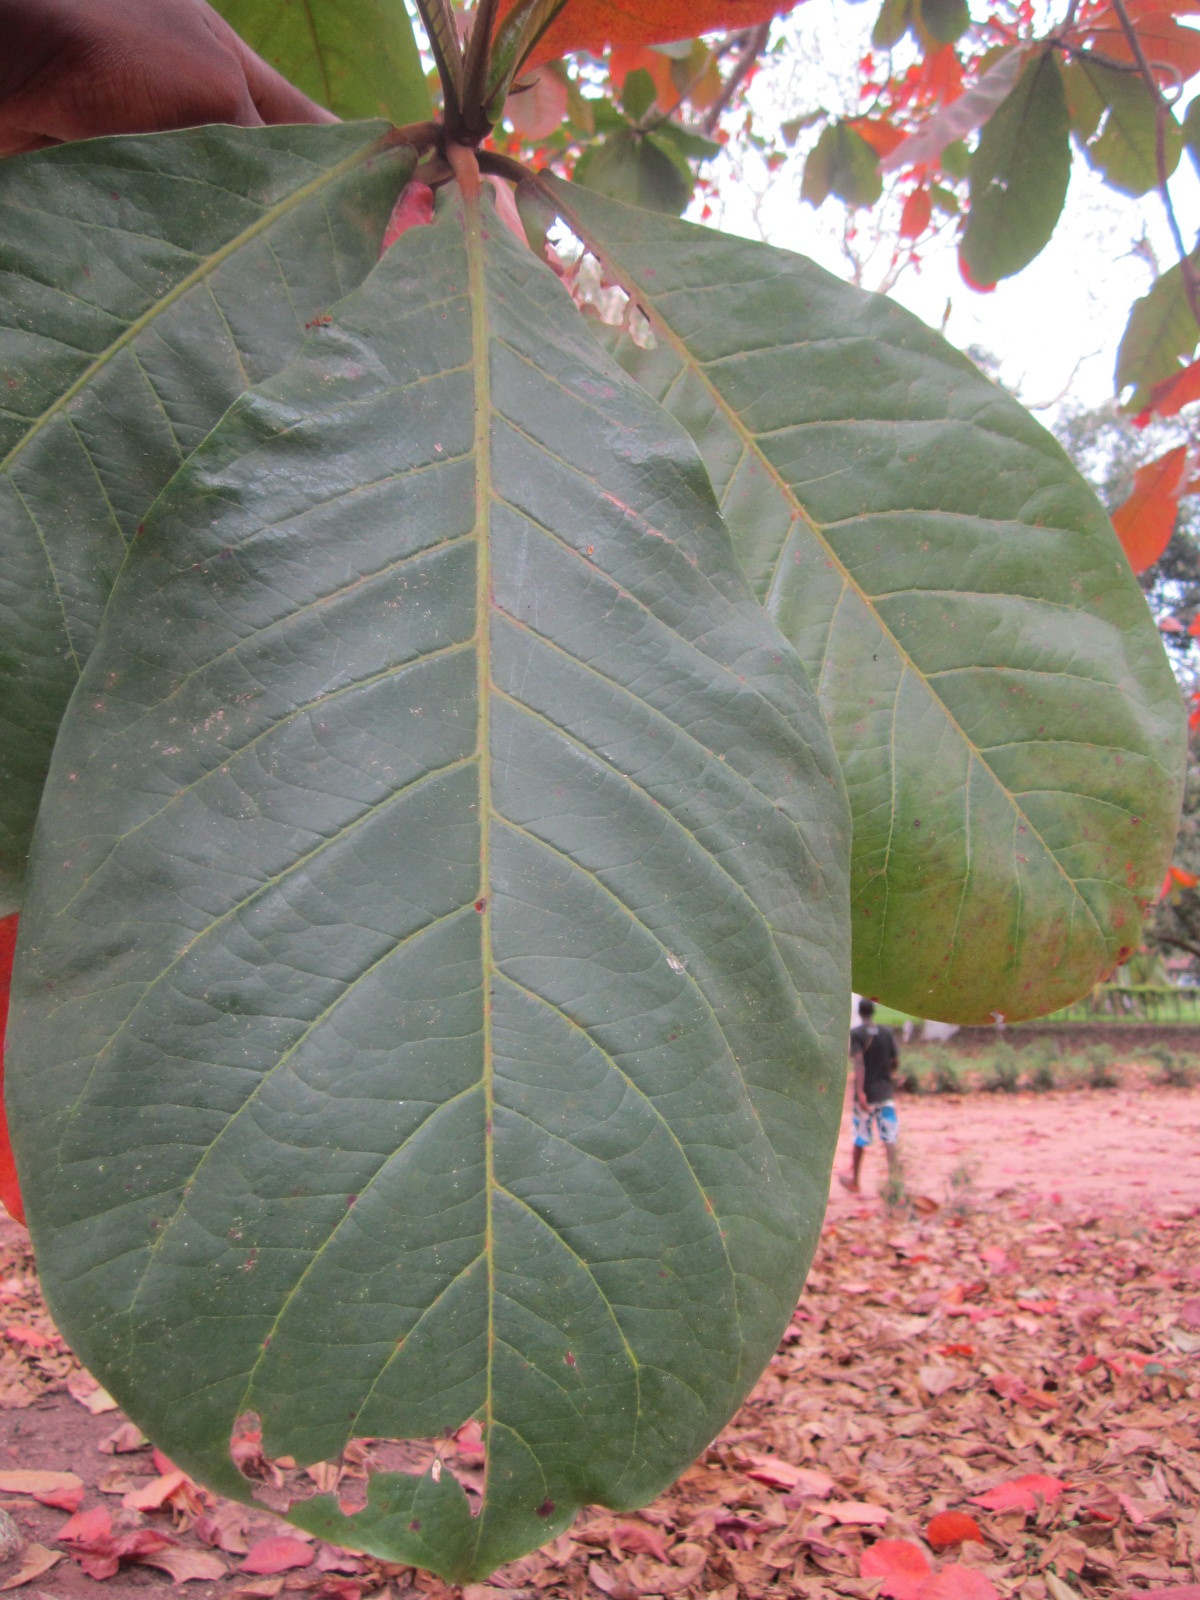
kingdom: Plantae
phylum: Tracheophyta
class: Magnoliopsida
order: Myrtales
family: Combretaceae
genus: Terminalia
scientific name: Terminalia catappa
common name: Tropical almond
